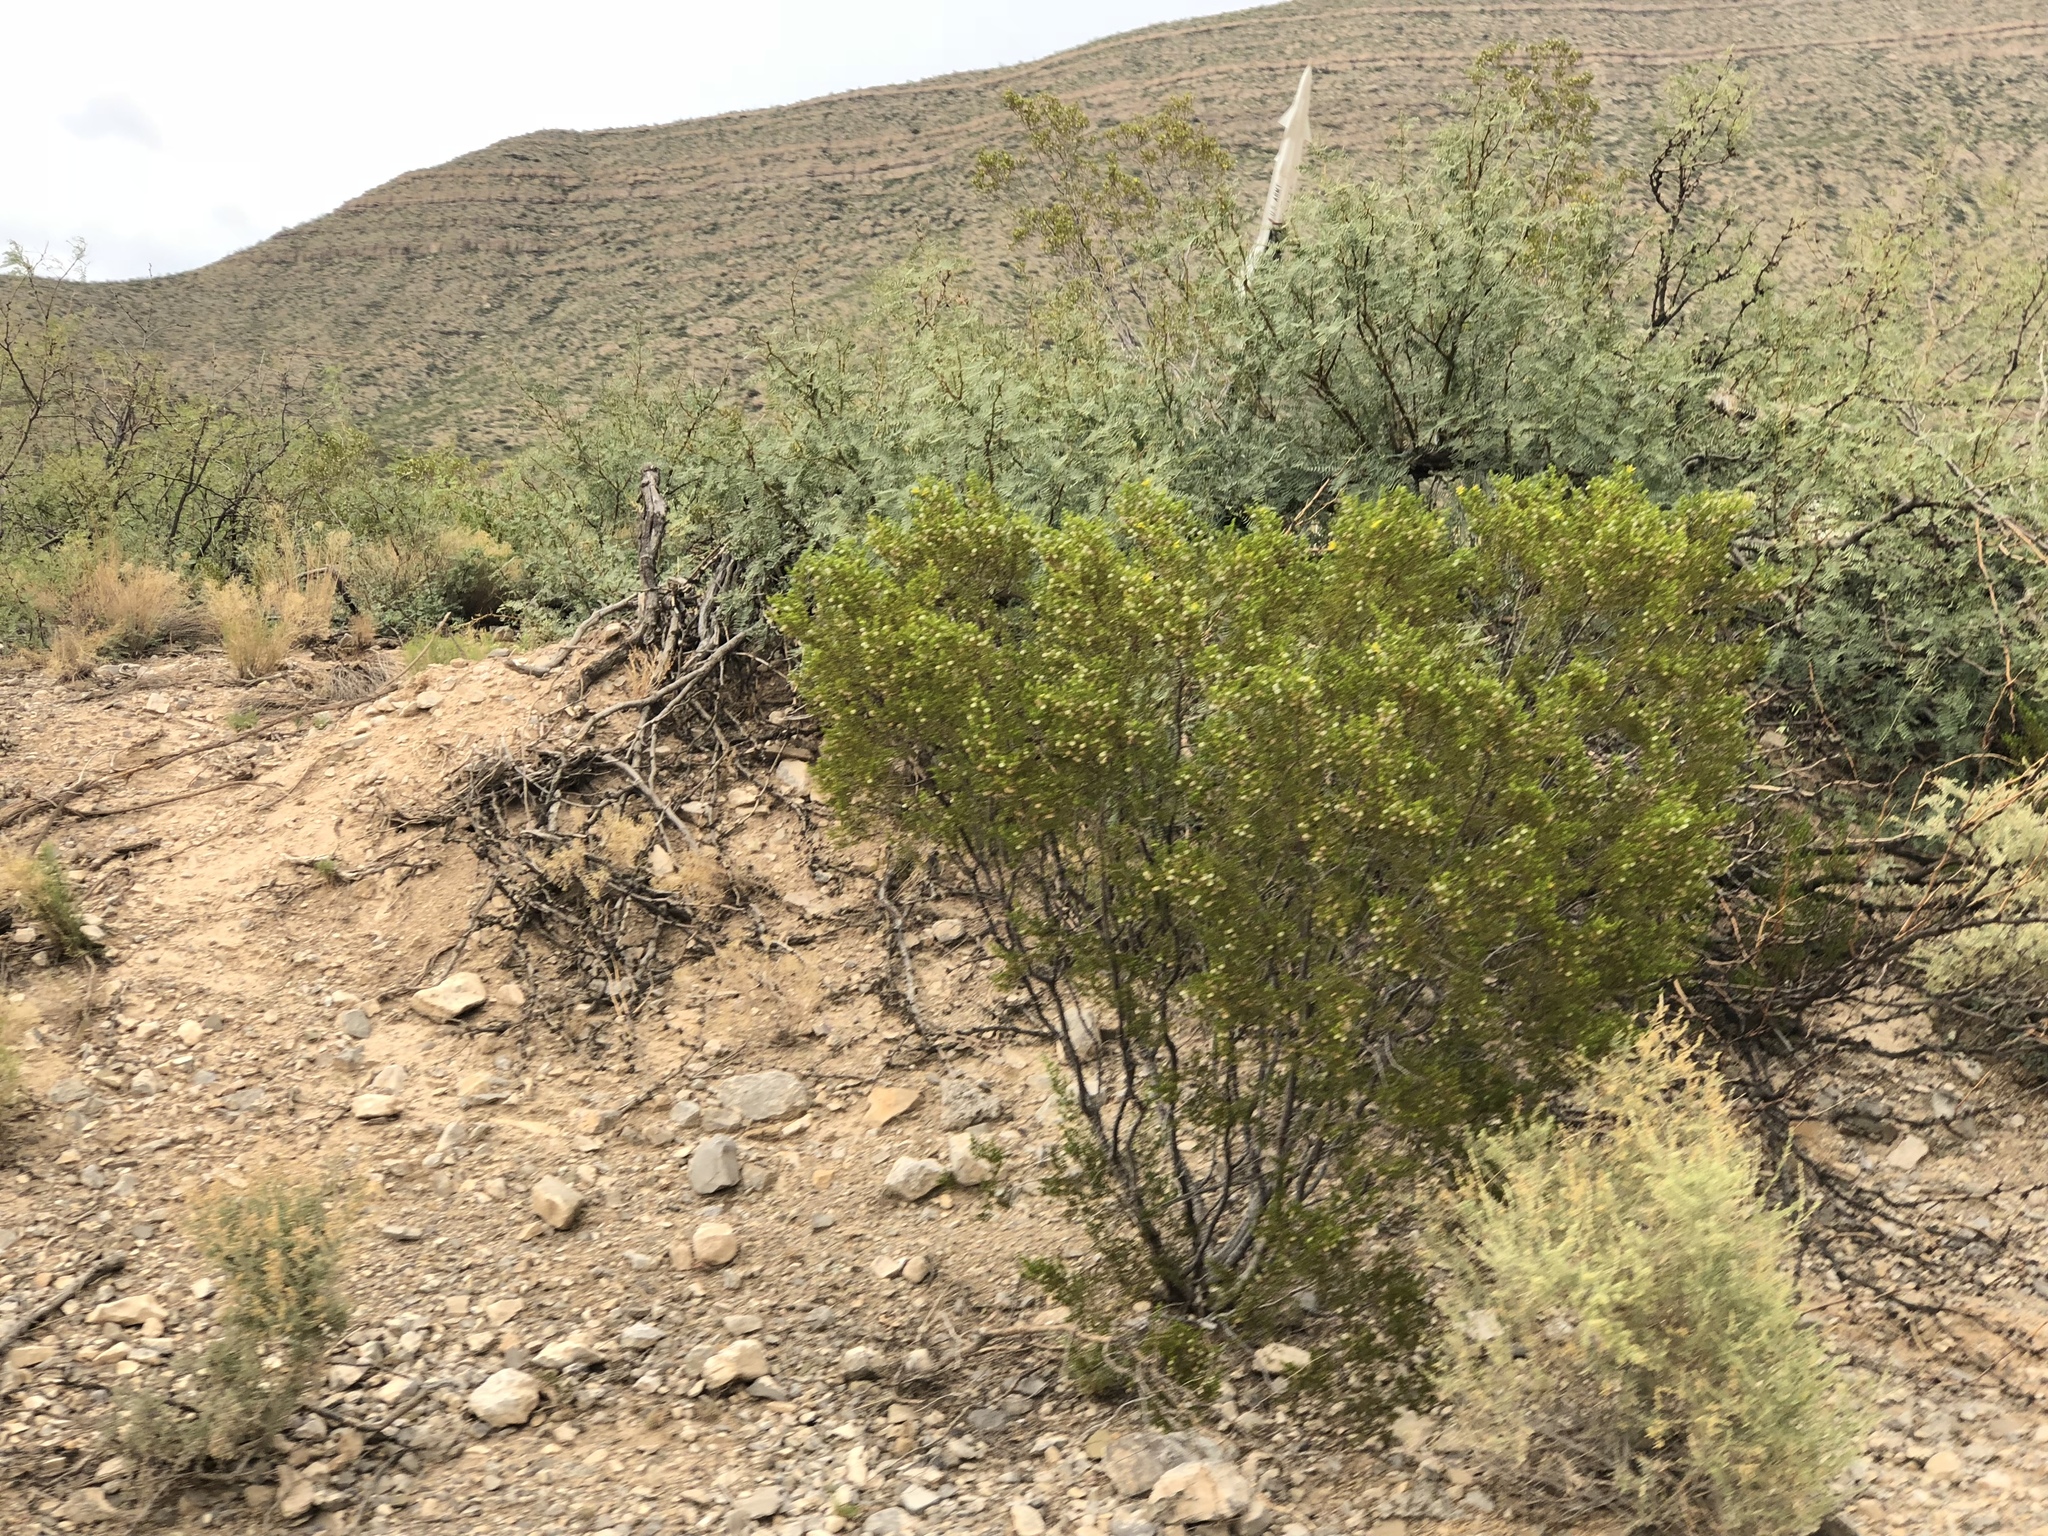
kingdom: Plantae
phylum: Tracheophyta
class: Magnoliopsida
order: Zygophyllales
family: Zygophyllaceae
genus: Larrea
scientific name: Larrea tridentata
